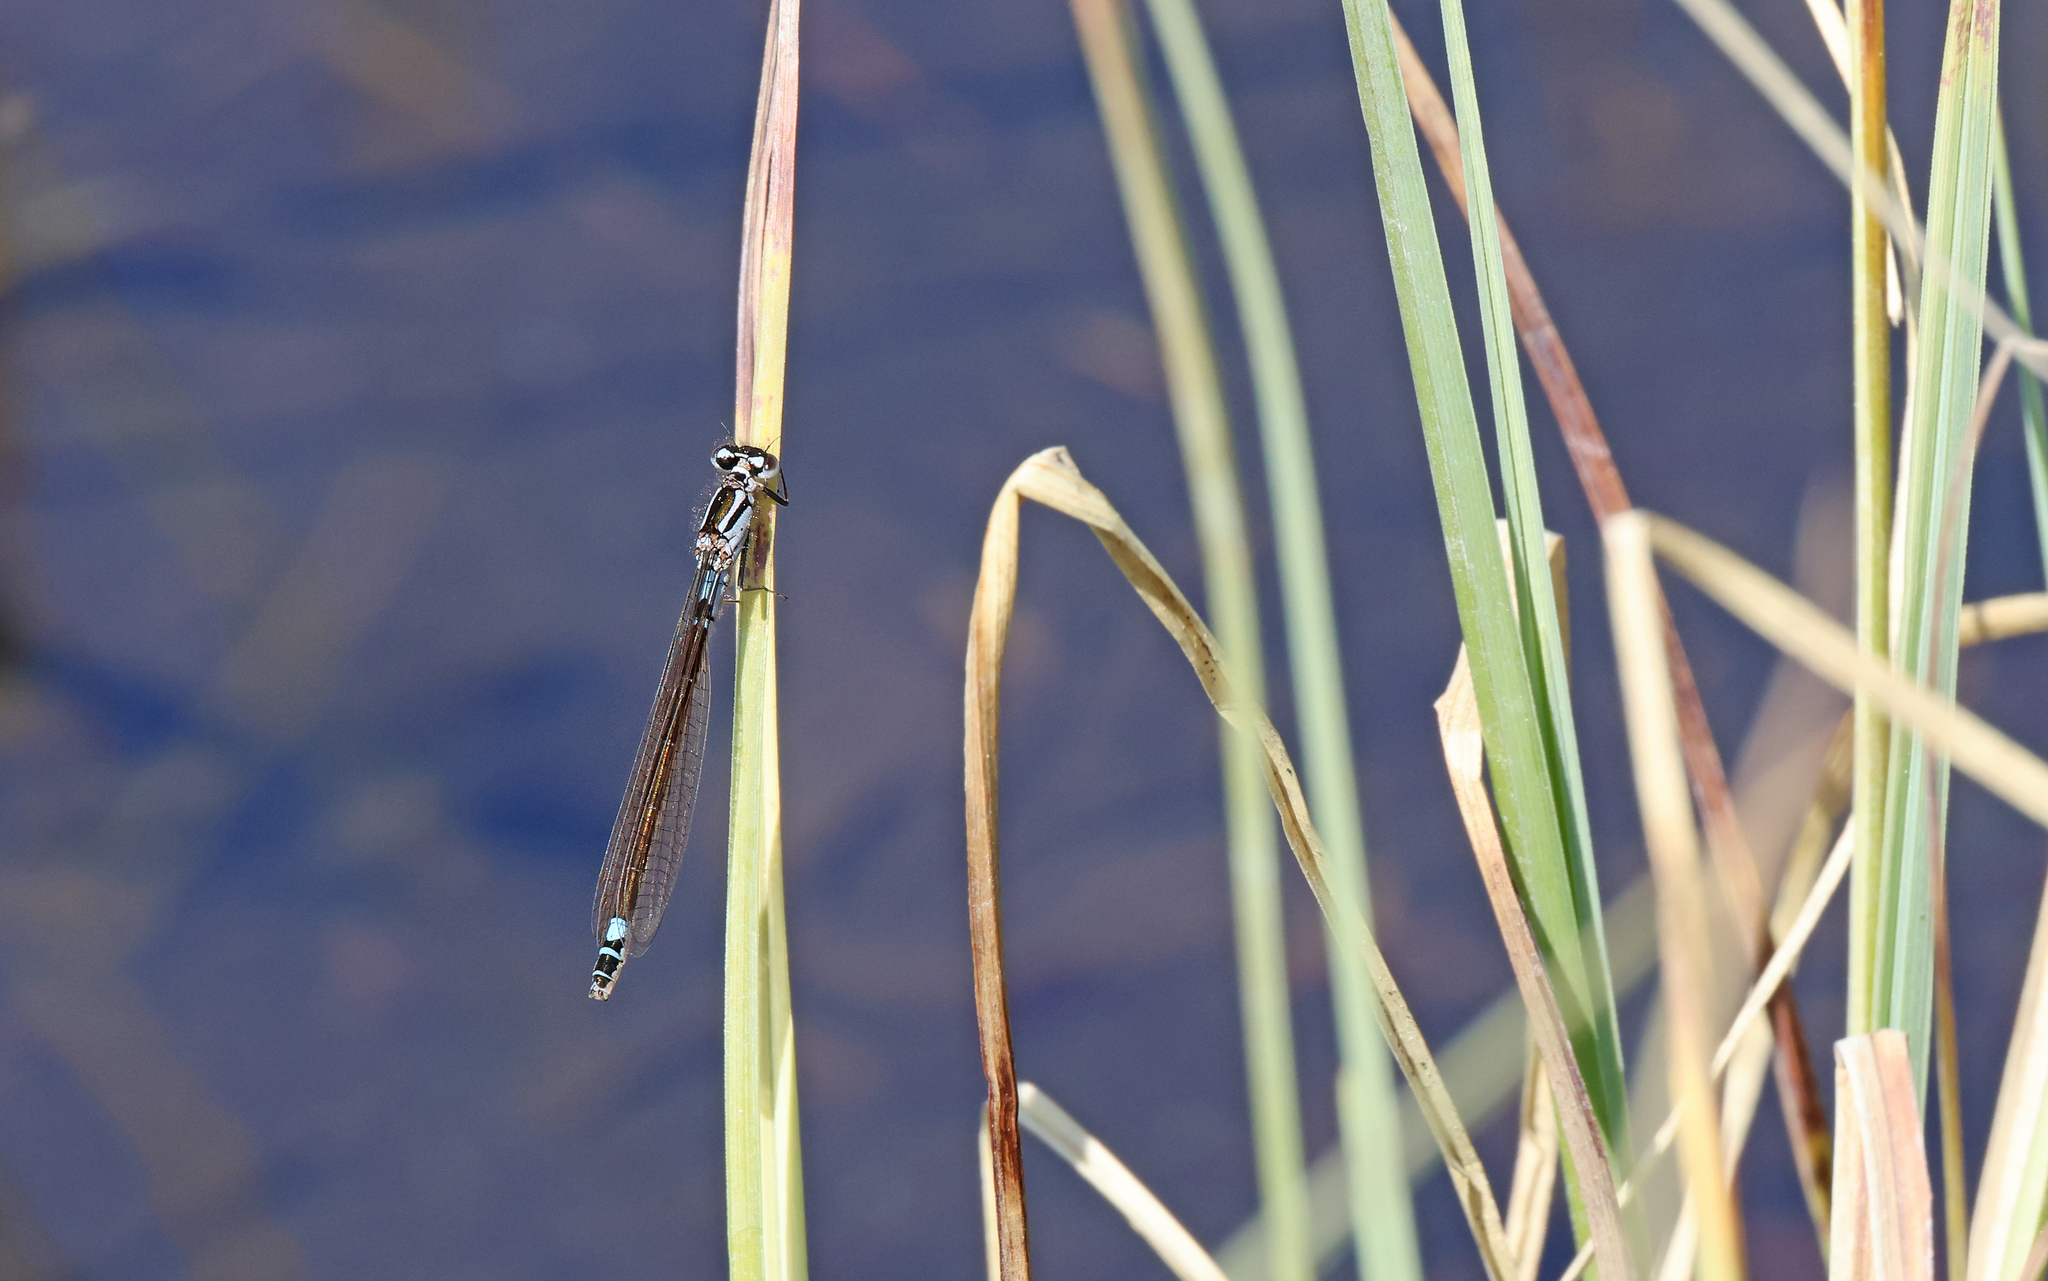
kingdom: Animalia
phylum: Arthropoda
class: Insecta
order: Odonata
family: Coenagrionidae
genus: Coenagrion
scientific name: Coenagrion armatum
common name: Dark bluet
